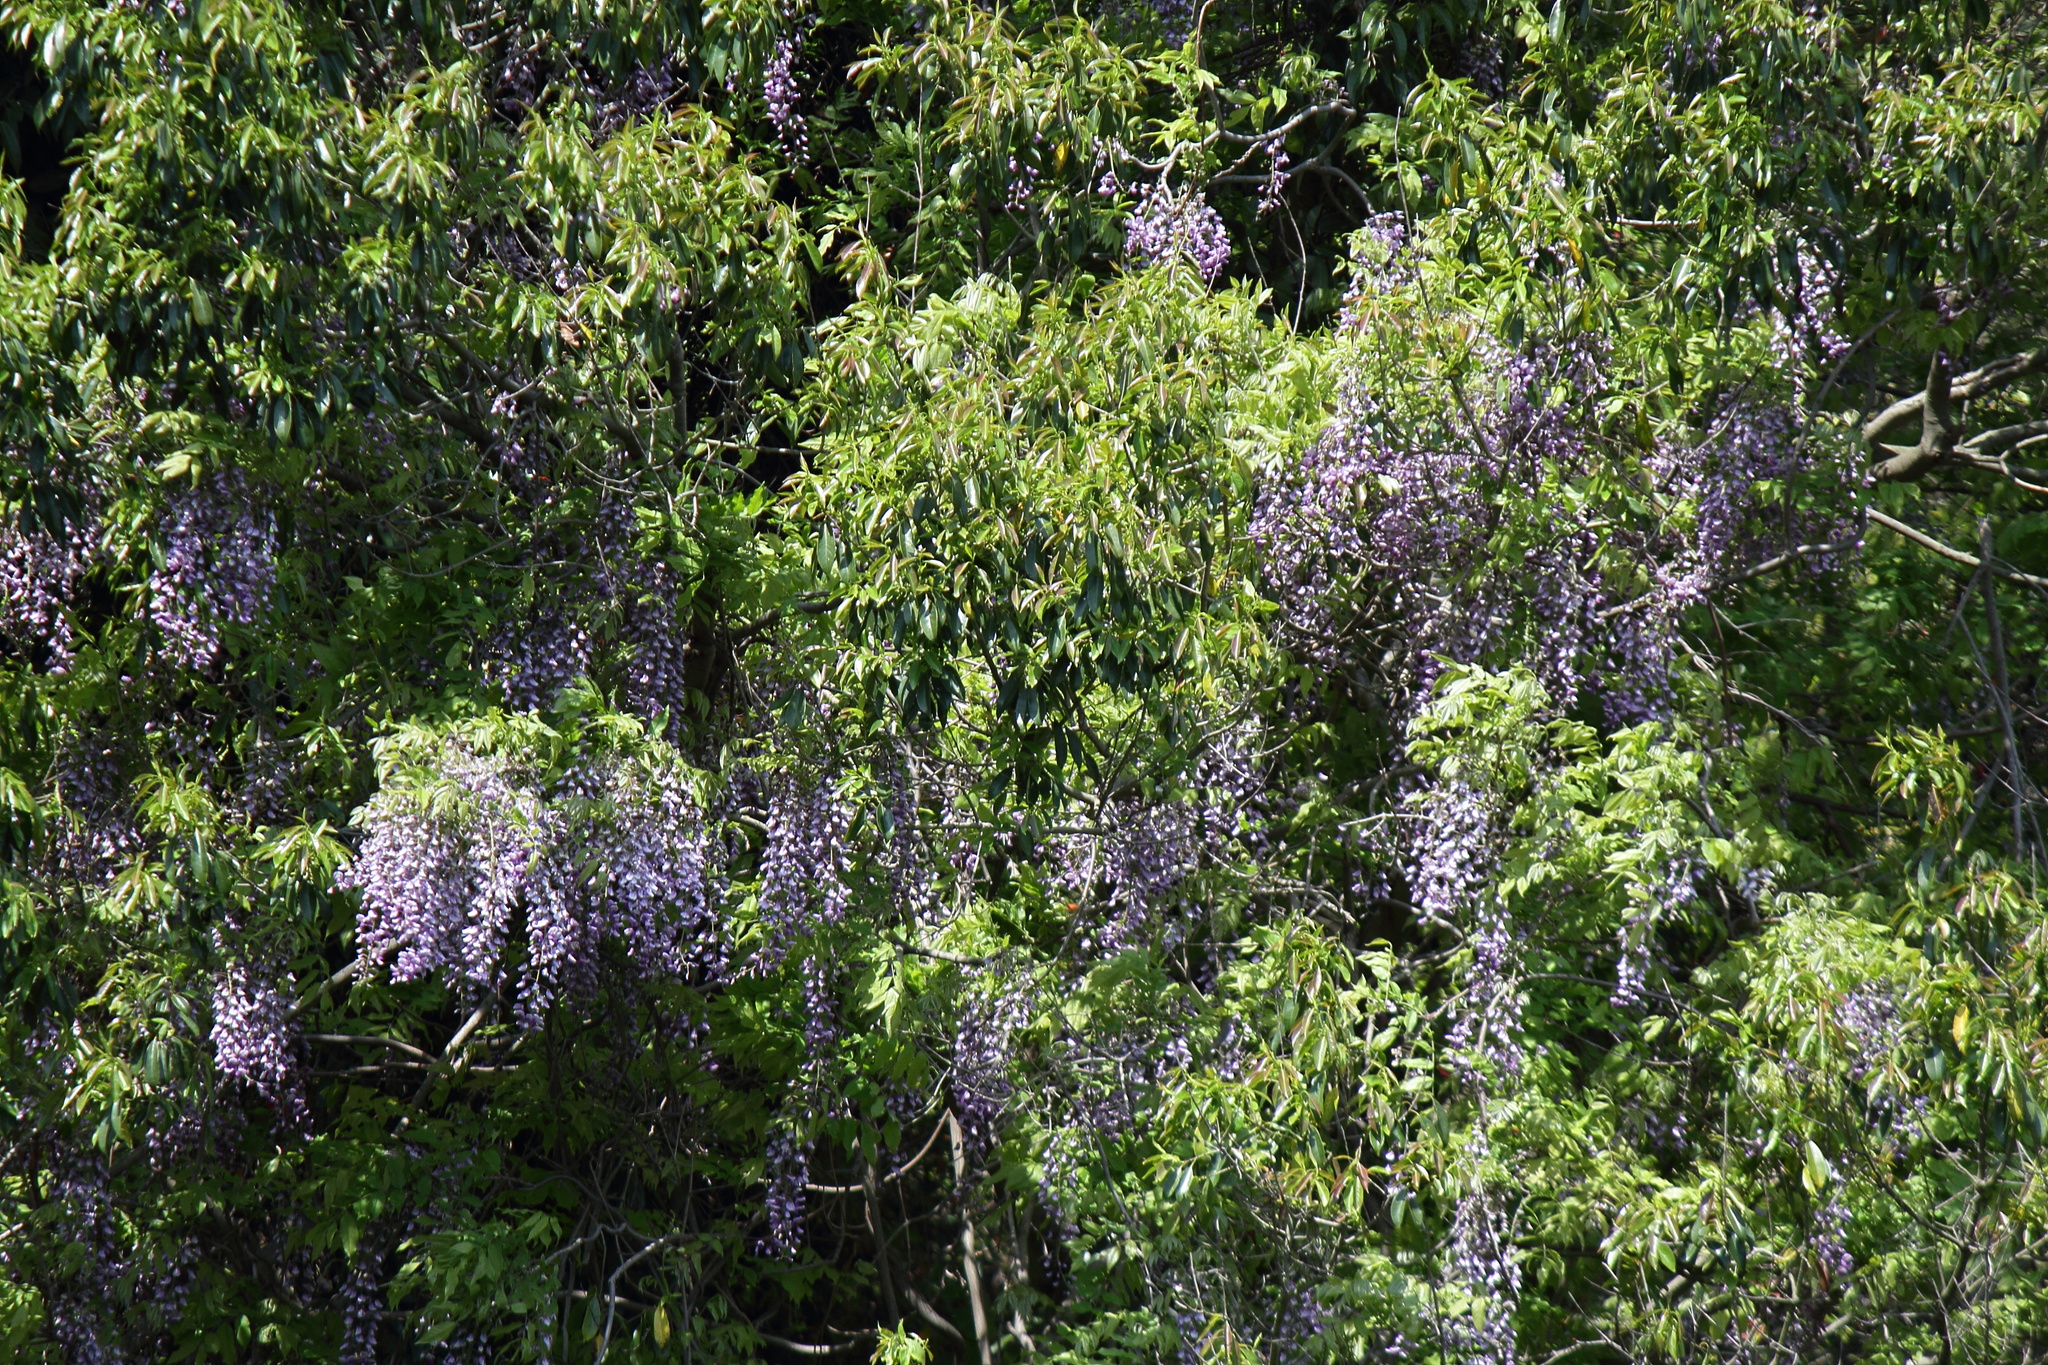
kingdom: Plantae
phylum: Tracheophyta
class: Magnoliopsida
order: Fabales
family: Fabaceae
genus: Wisteria
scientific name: Wisteria floribunda
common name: Japanese wisteria
